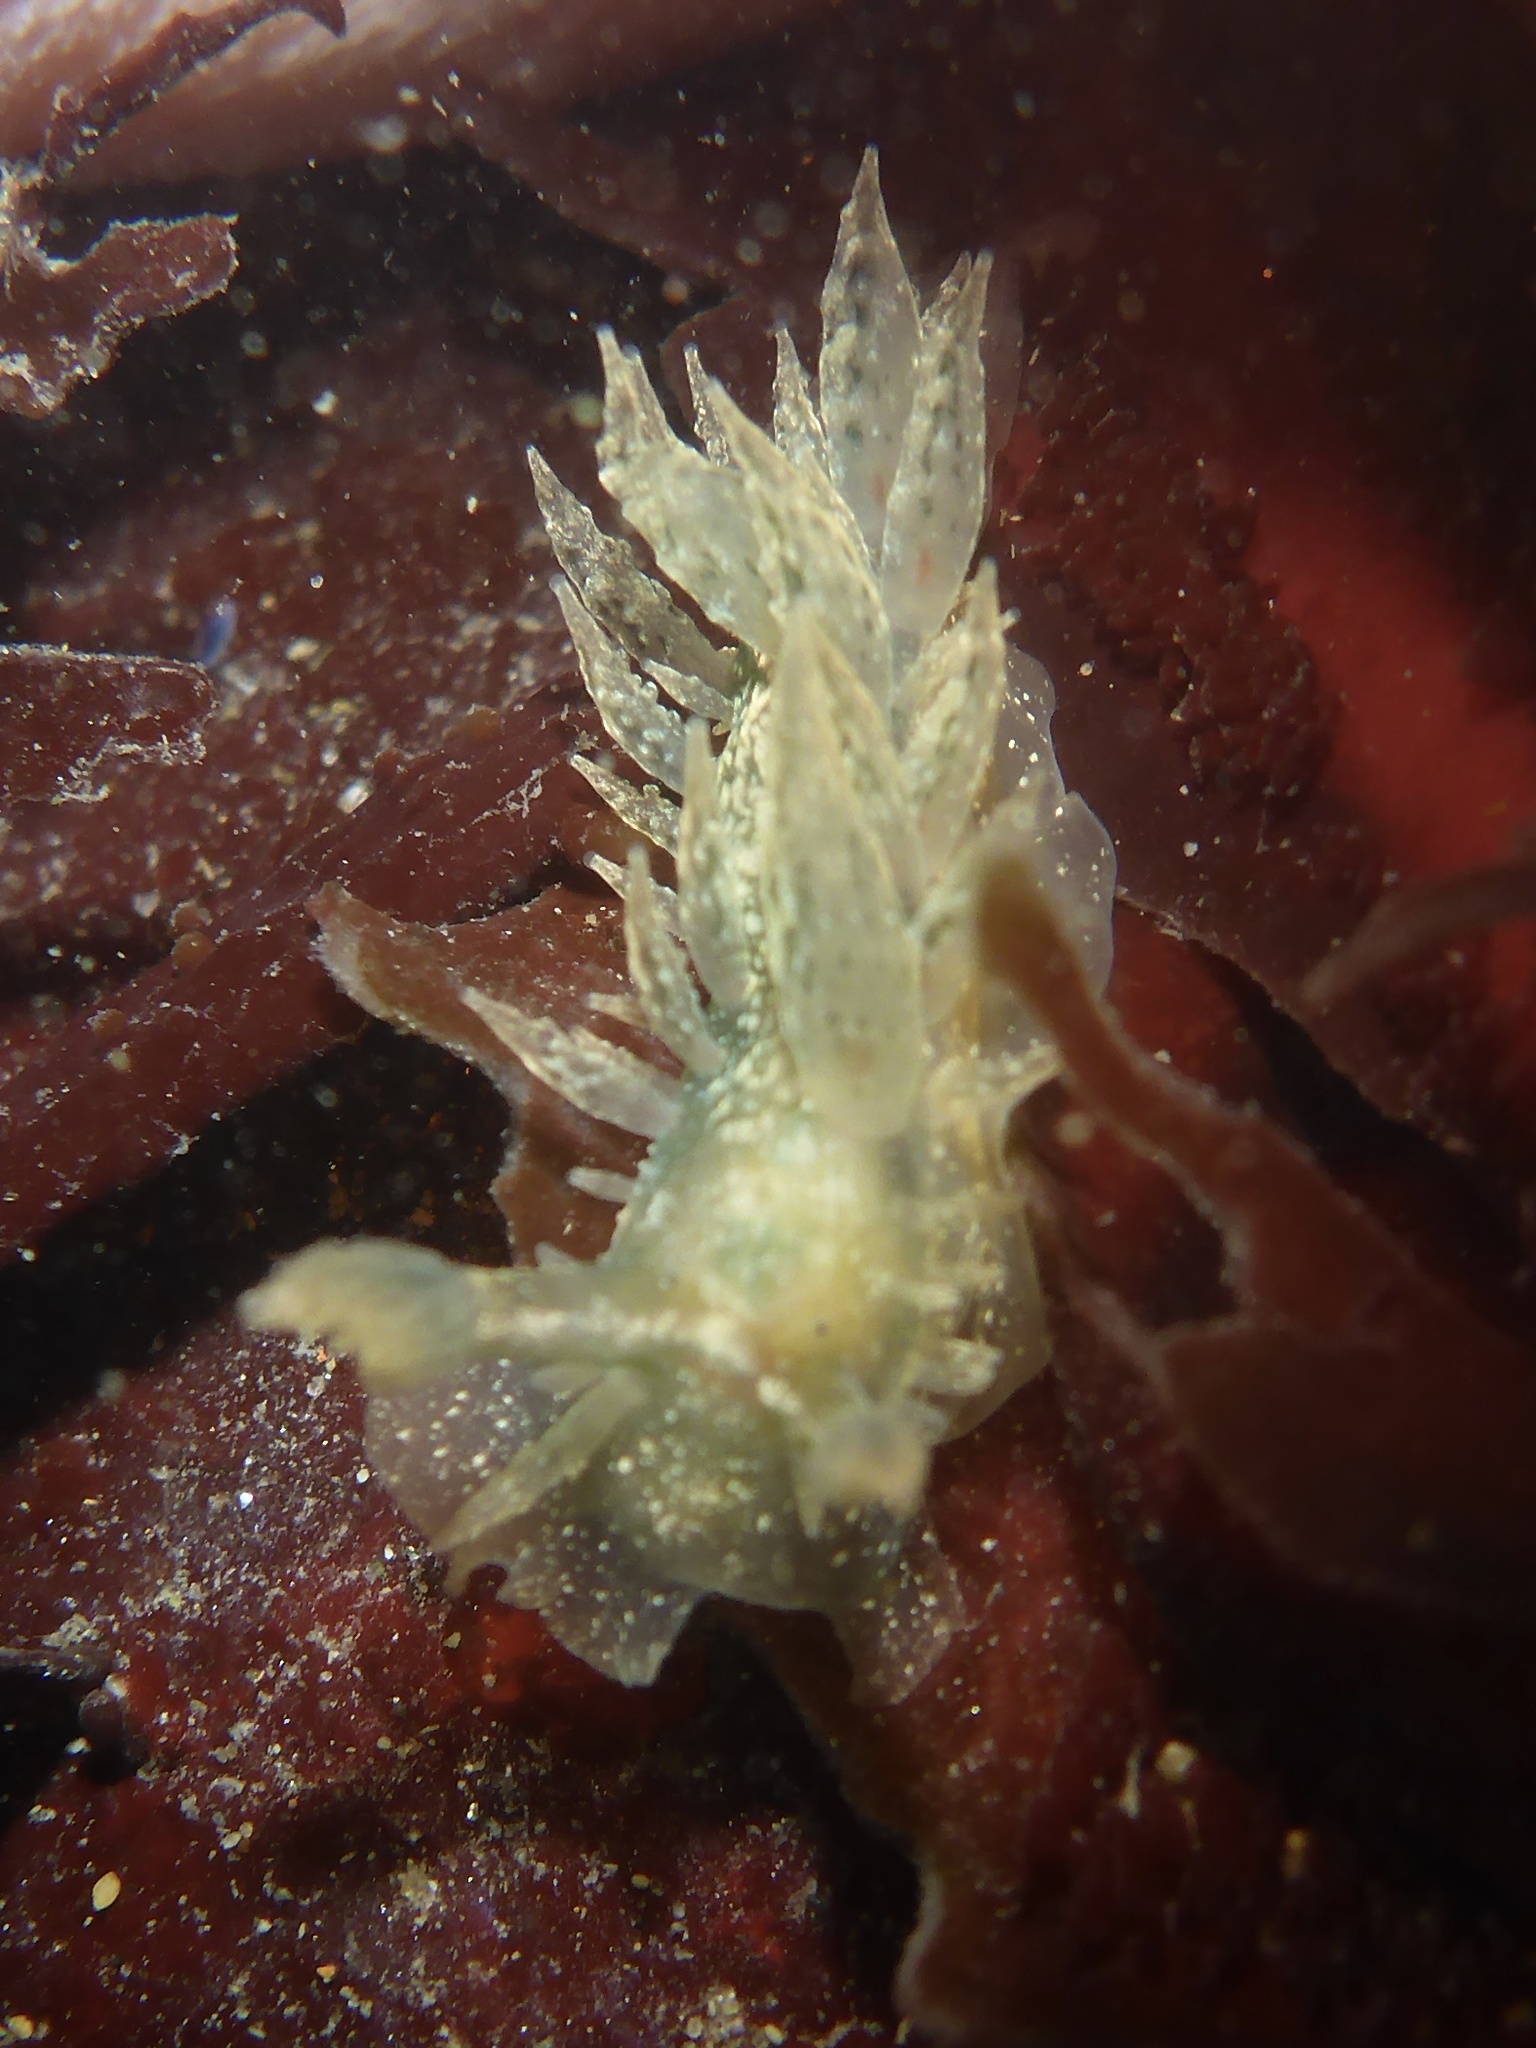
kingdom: Animalia
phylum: Mollusca
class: Gastropoda
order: Nudibranchia
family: Dironidae
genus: Dirona
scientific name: Dirona picta
